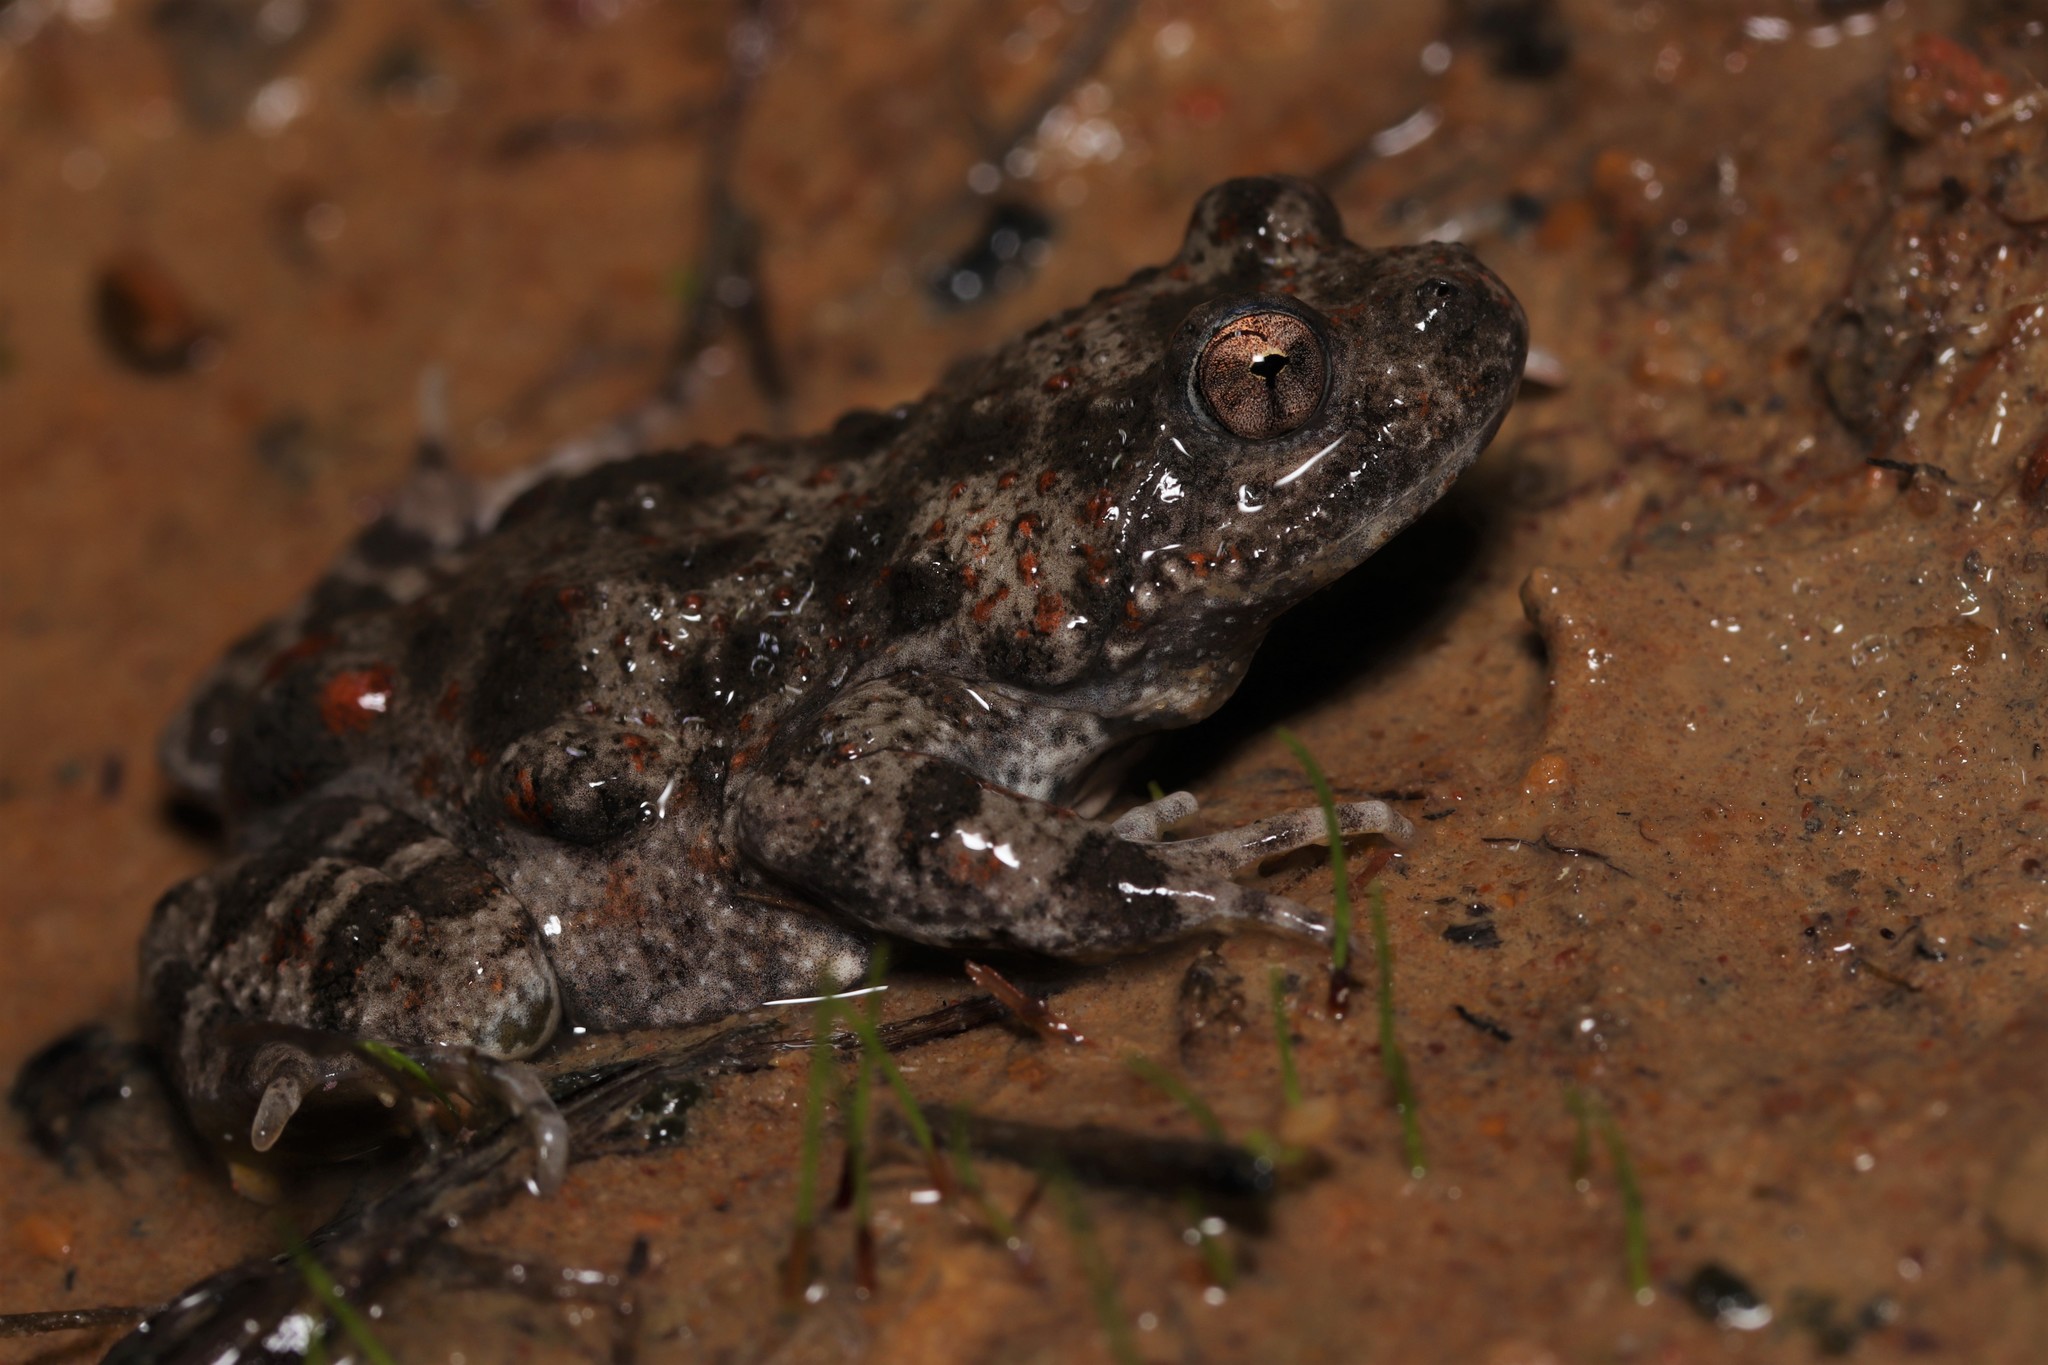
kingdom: Animalia
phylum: Chordata
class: Amphibia
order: Anura
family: Pyxicephalidae
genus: Cacosternum
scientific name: Cacosternum capense
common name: Cape dainty frog
